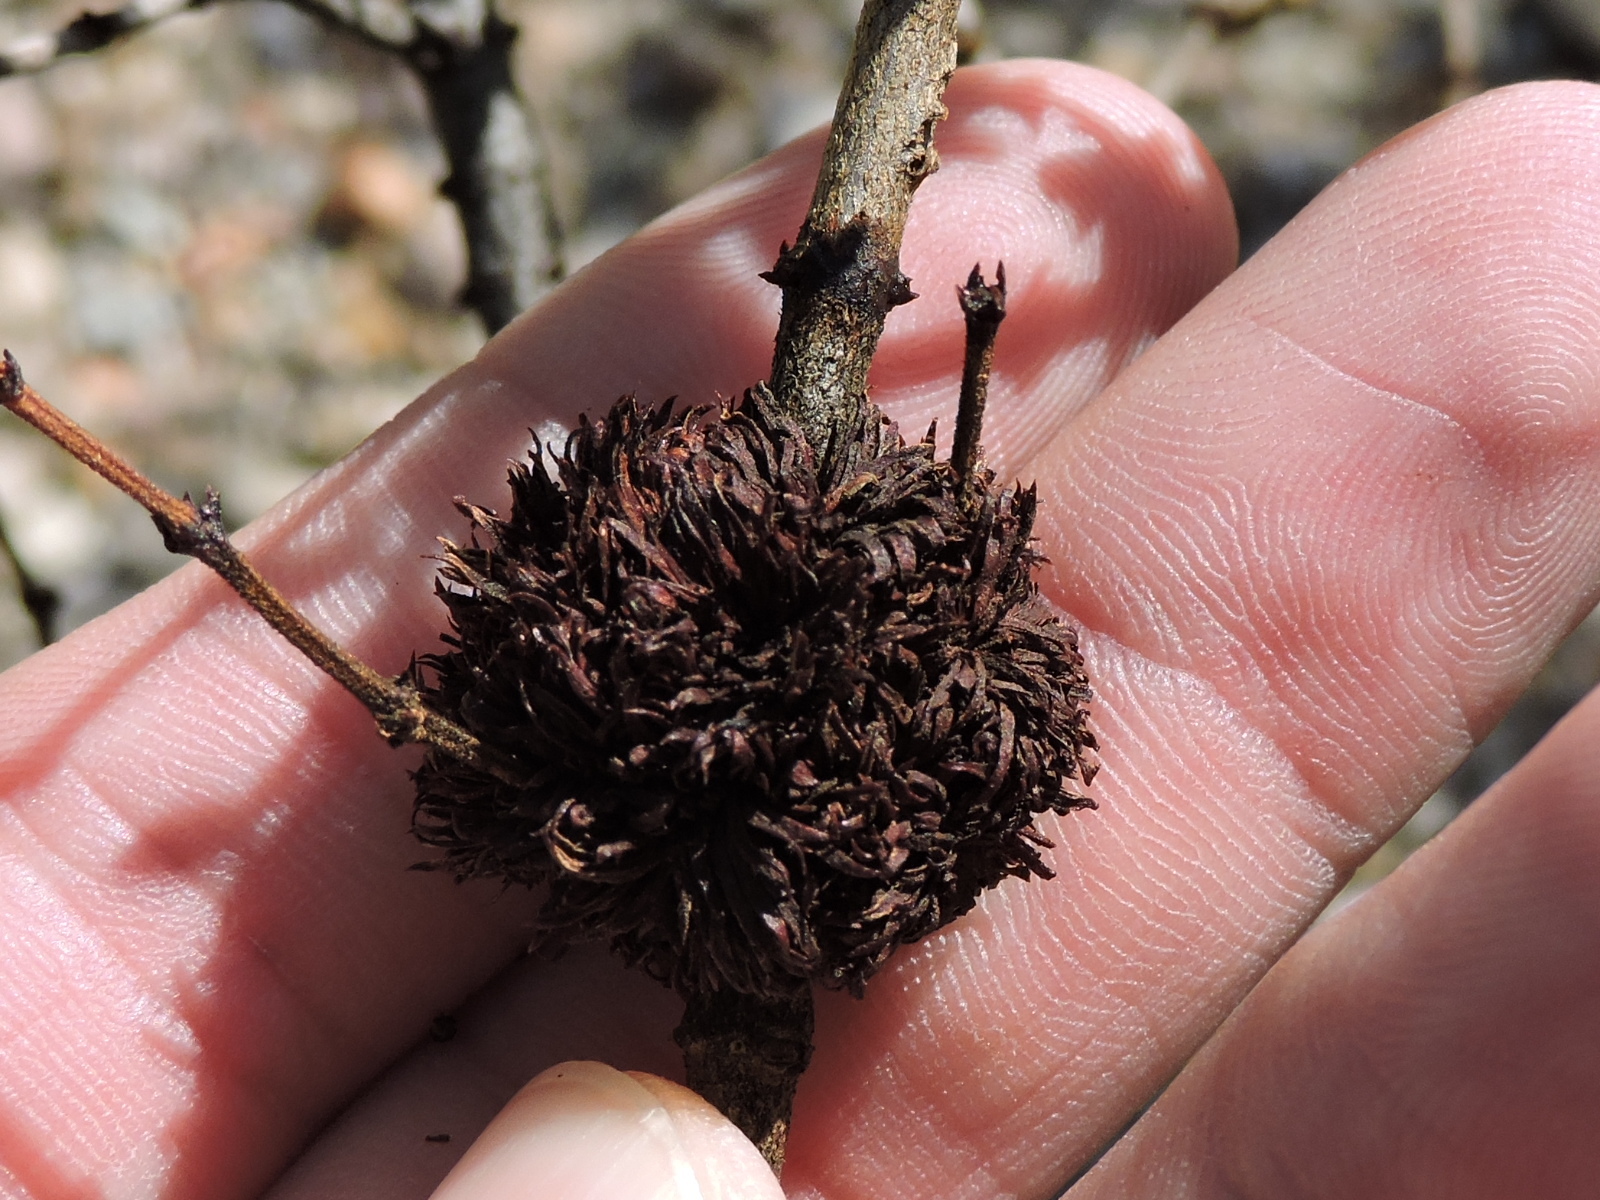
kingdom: Animalia
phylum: Arthropoda
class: Insecta
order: Diptera
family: Cecidomyiidae
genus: Asphondylia
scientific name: Asphondylia auripila
